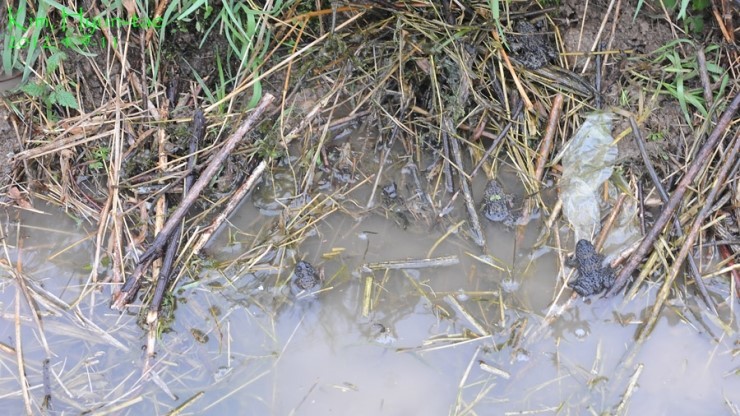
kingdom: Animalia
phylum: Chordata
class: Amphibia
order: Anura
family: Bombinatoridae
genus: Bombina
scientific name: Bombina orientalis
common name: Oriental firebelly toad
